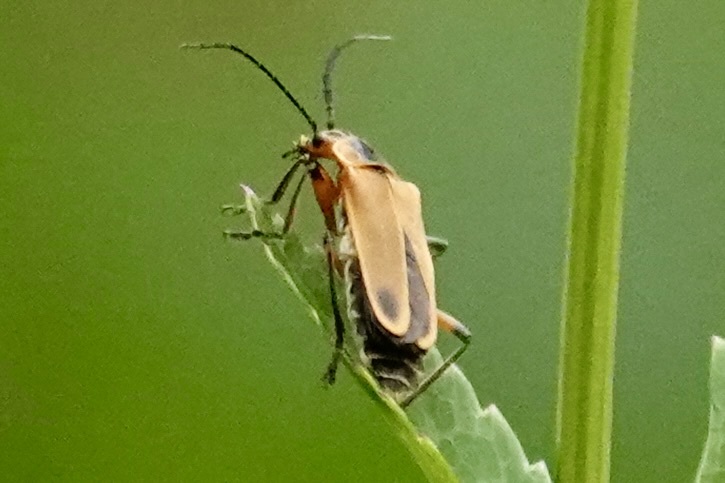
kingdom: Animalia
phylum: Arthropoda
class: Insecta
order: Coleoptera
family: Cantharidae
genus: Chauliognathus
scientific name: Chauliognathus marginatus
